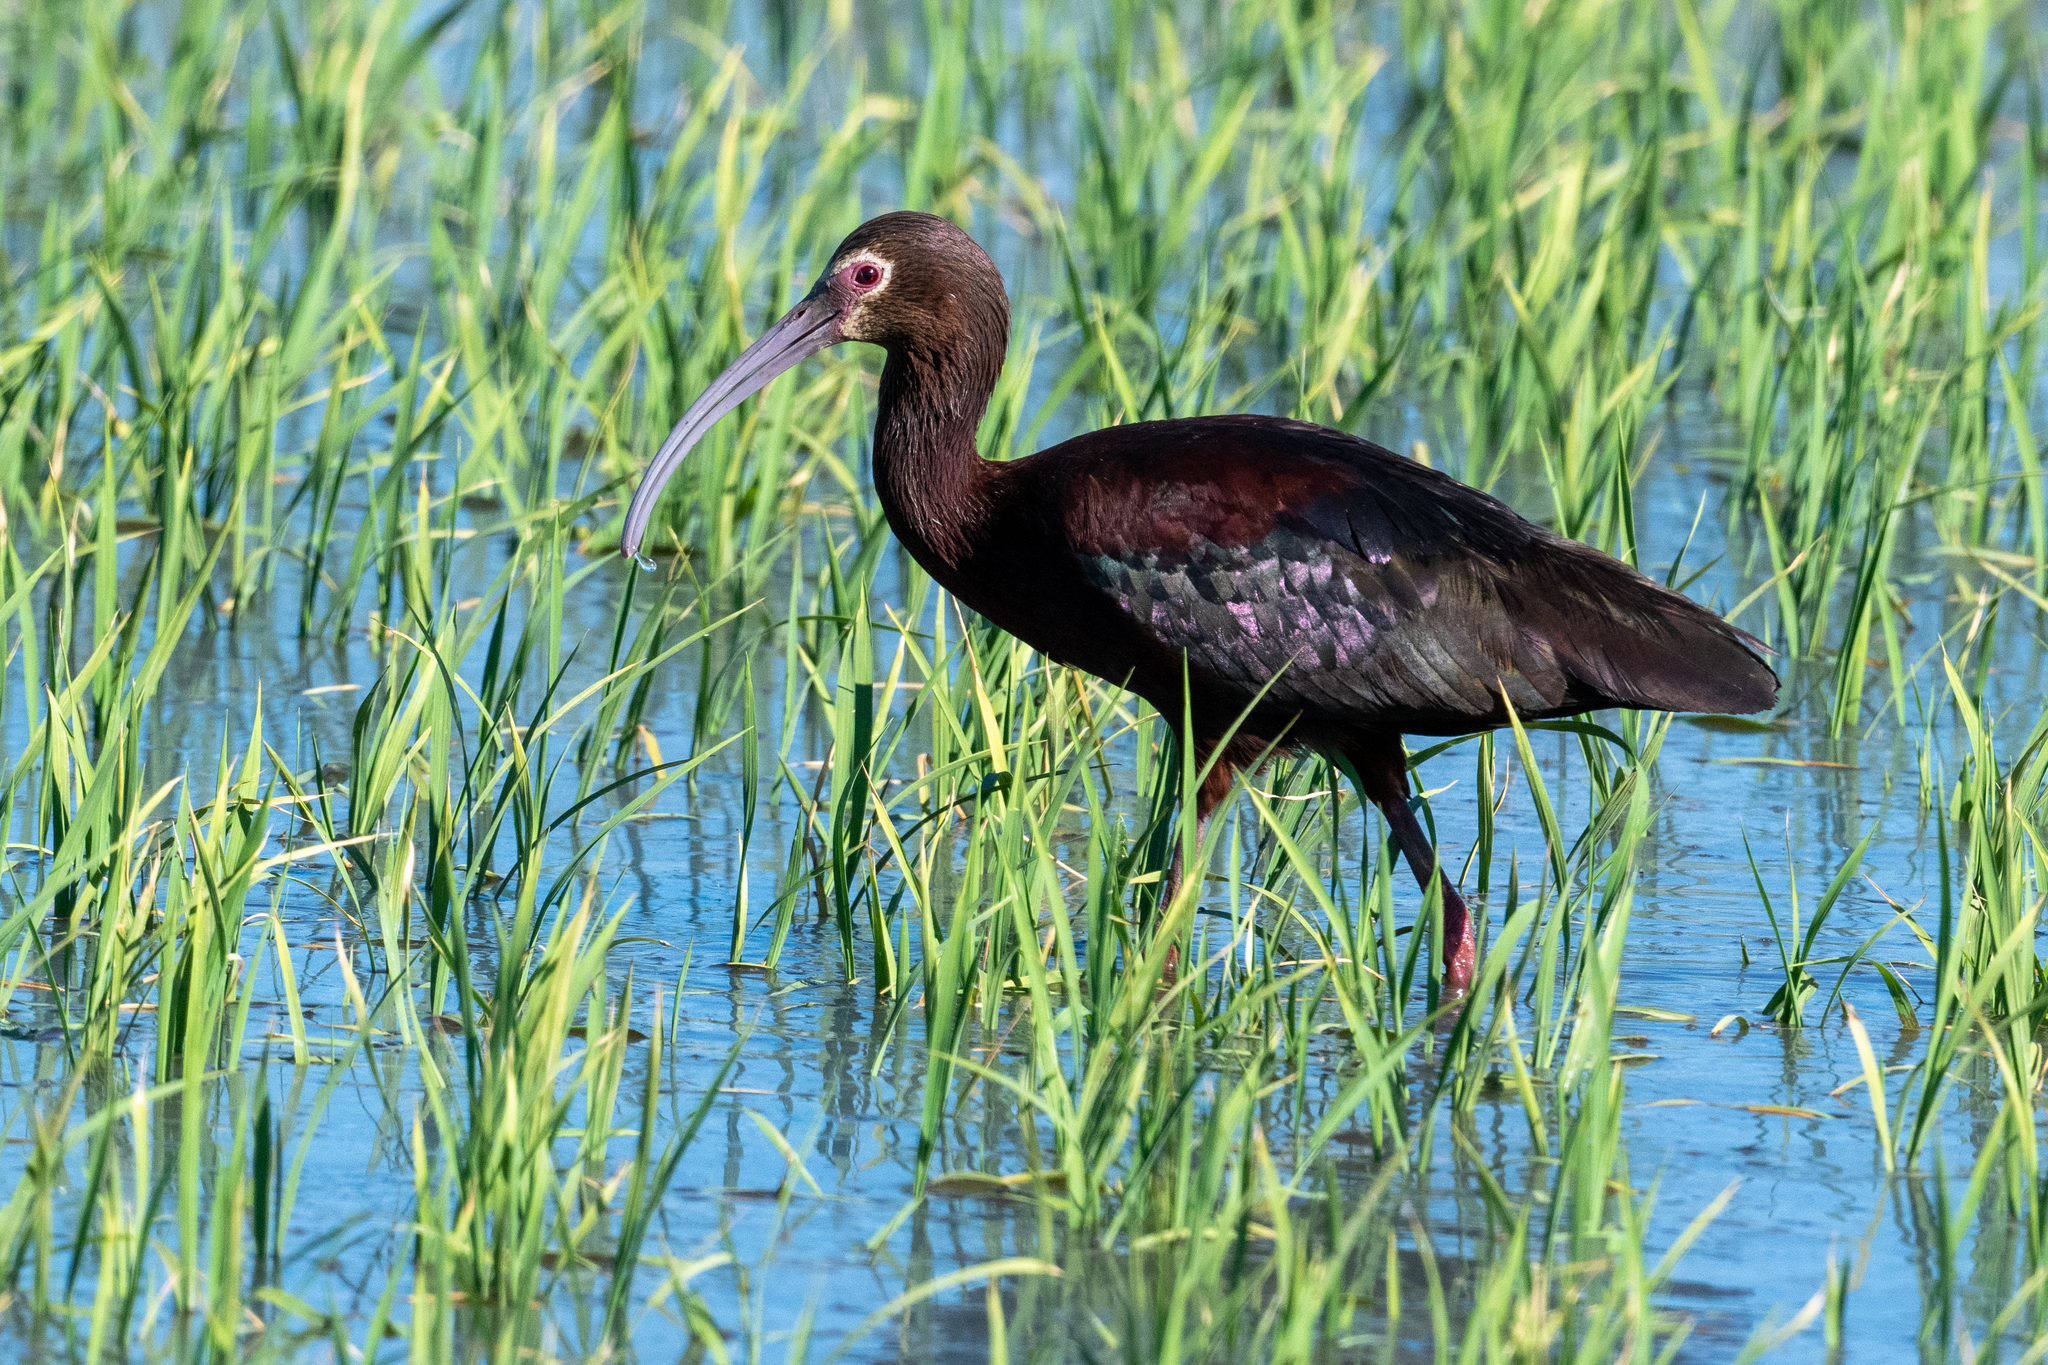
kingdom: Animalia
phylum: Chordata
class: Aves
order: Pelecaniformes
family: Threskiornithidae
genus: Plegadis
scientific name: Plegadis chihi
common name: White-faced ibis
